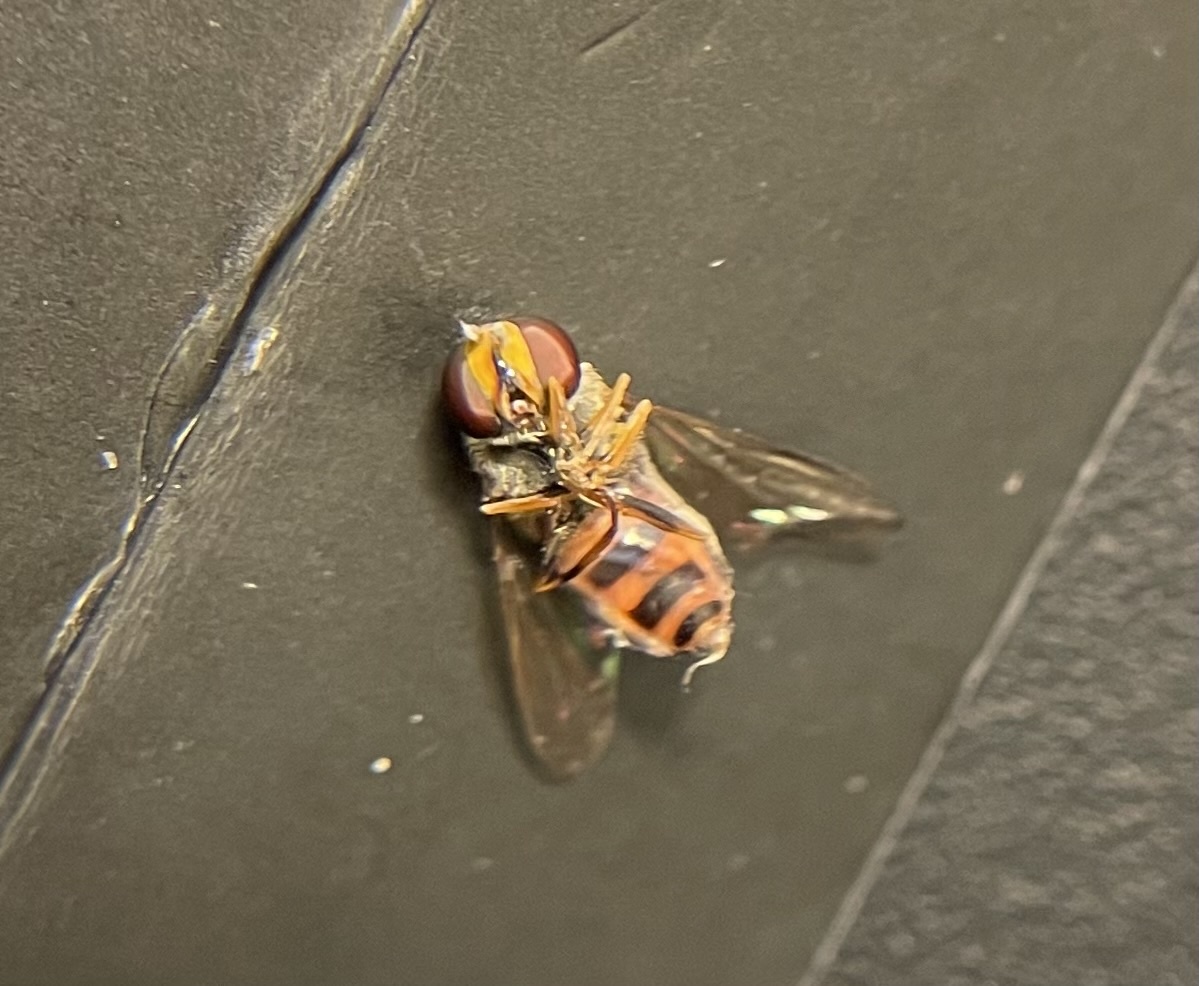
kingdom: Animalia
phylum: Arthropoda
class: Insecta
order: Diptera
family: Syrphidae
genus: Eupeodes
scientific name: Eupeodes
